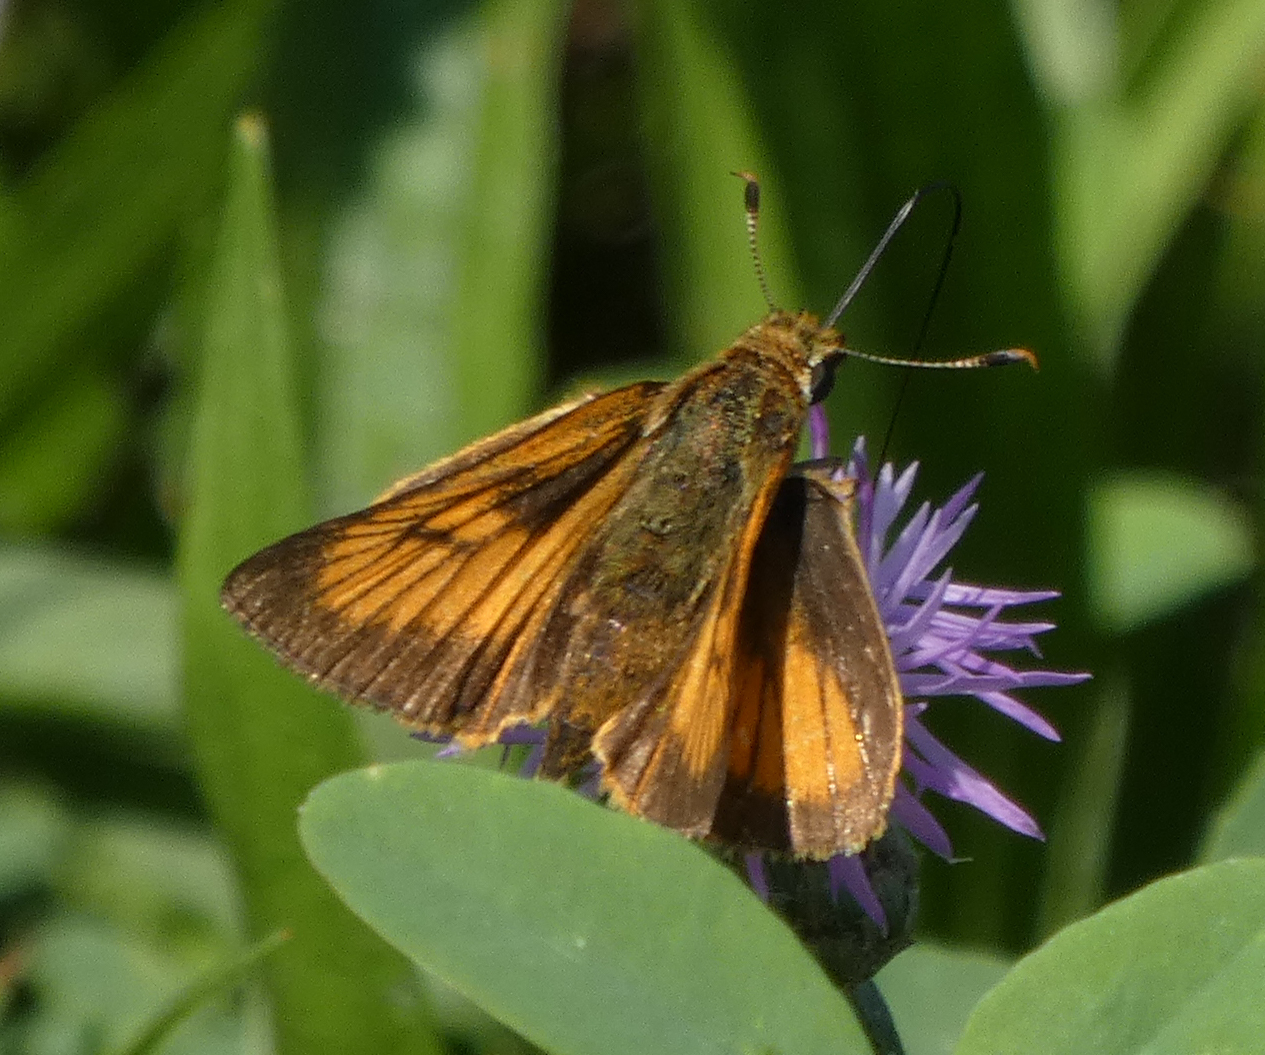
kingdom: Animalia
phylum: Arthropoda
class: Insecta
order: Lepidoptera
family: Hesperiidae
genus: Atrytone
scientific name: Atrytone delaware
